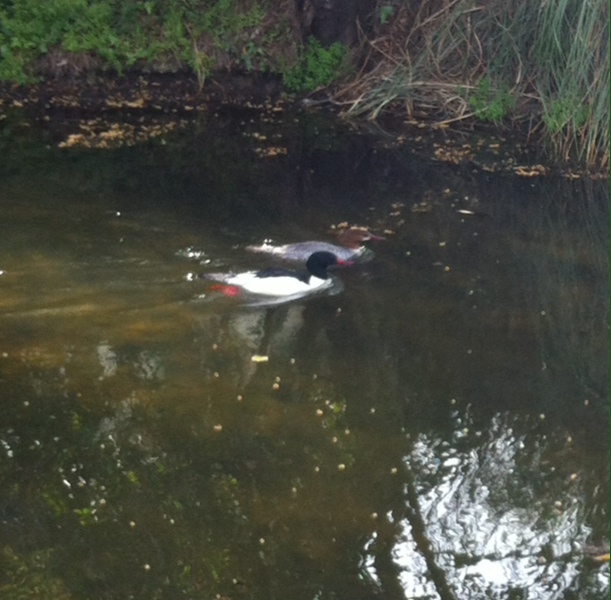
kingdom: Animalia
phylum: Chordata
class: Aves
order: Anseriformes
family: Anatidae
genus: Mergus
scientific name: Mergus merganser
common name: Common merganser
